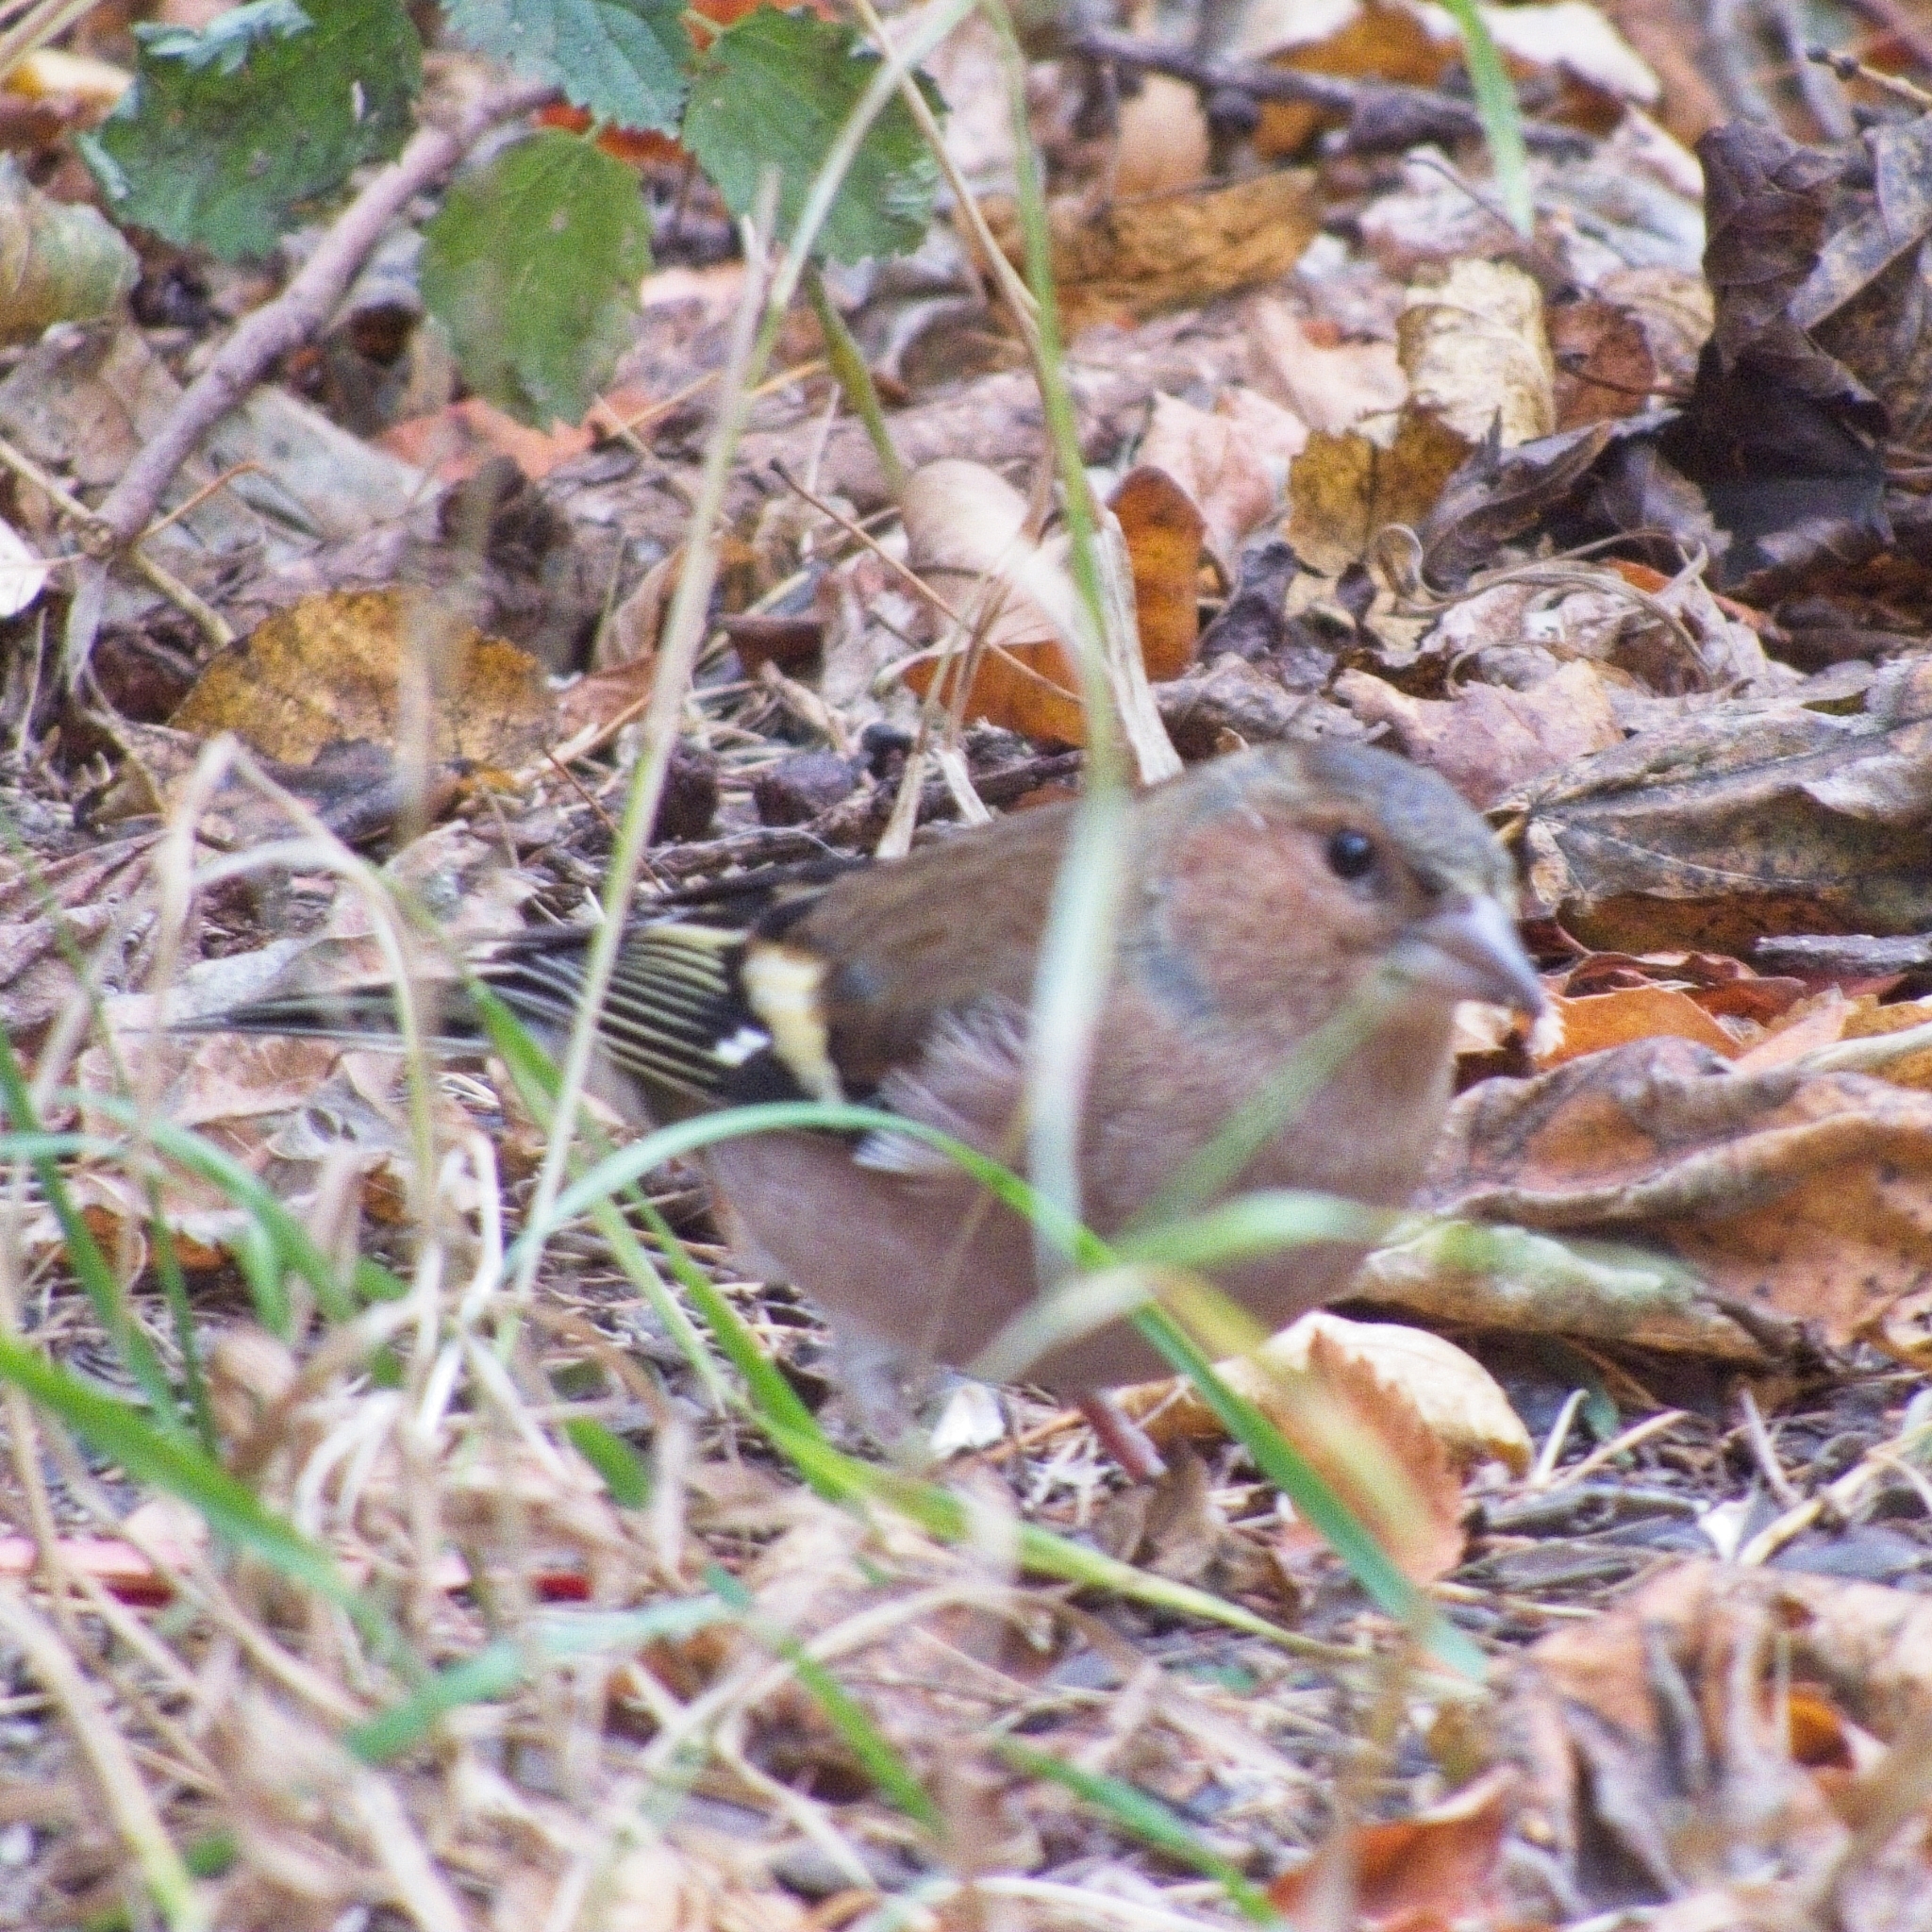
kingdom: Animalia
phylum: Chordata
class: Aves
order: Passeriformes
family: Fringillidae
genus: Fringilla
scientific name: Fringilla coelebs
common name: Common chaffinch
